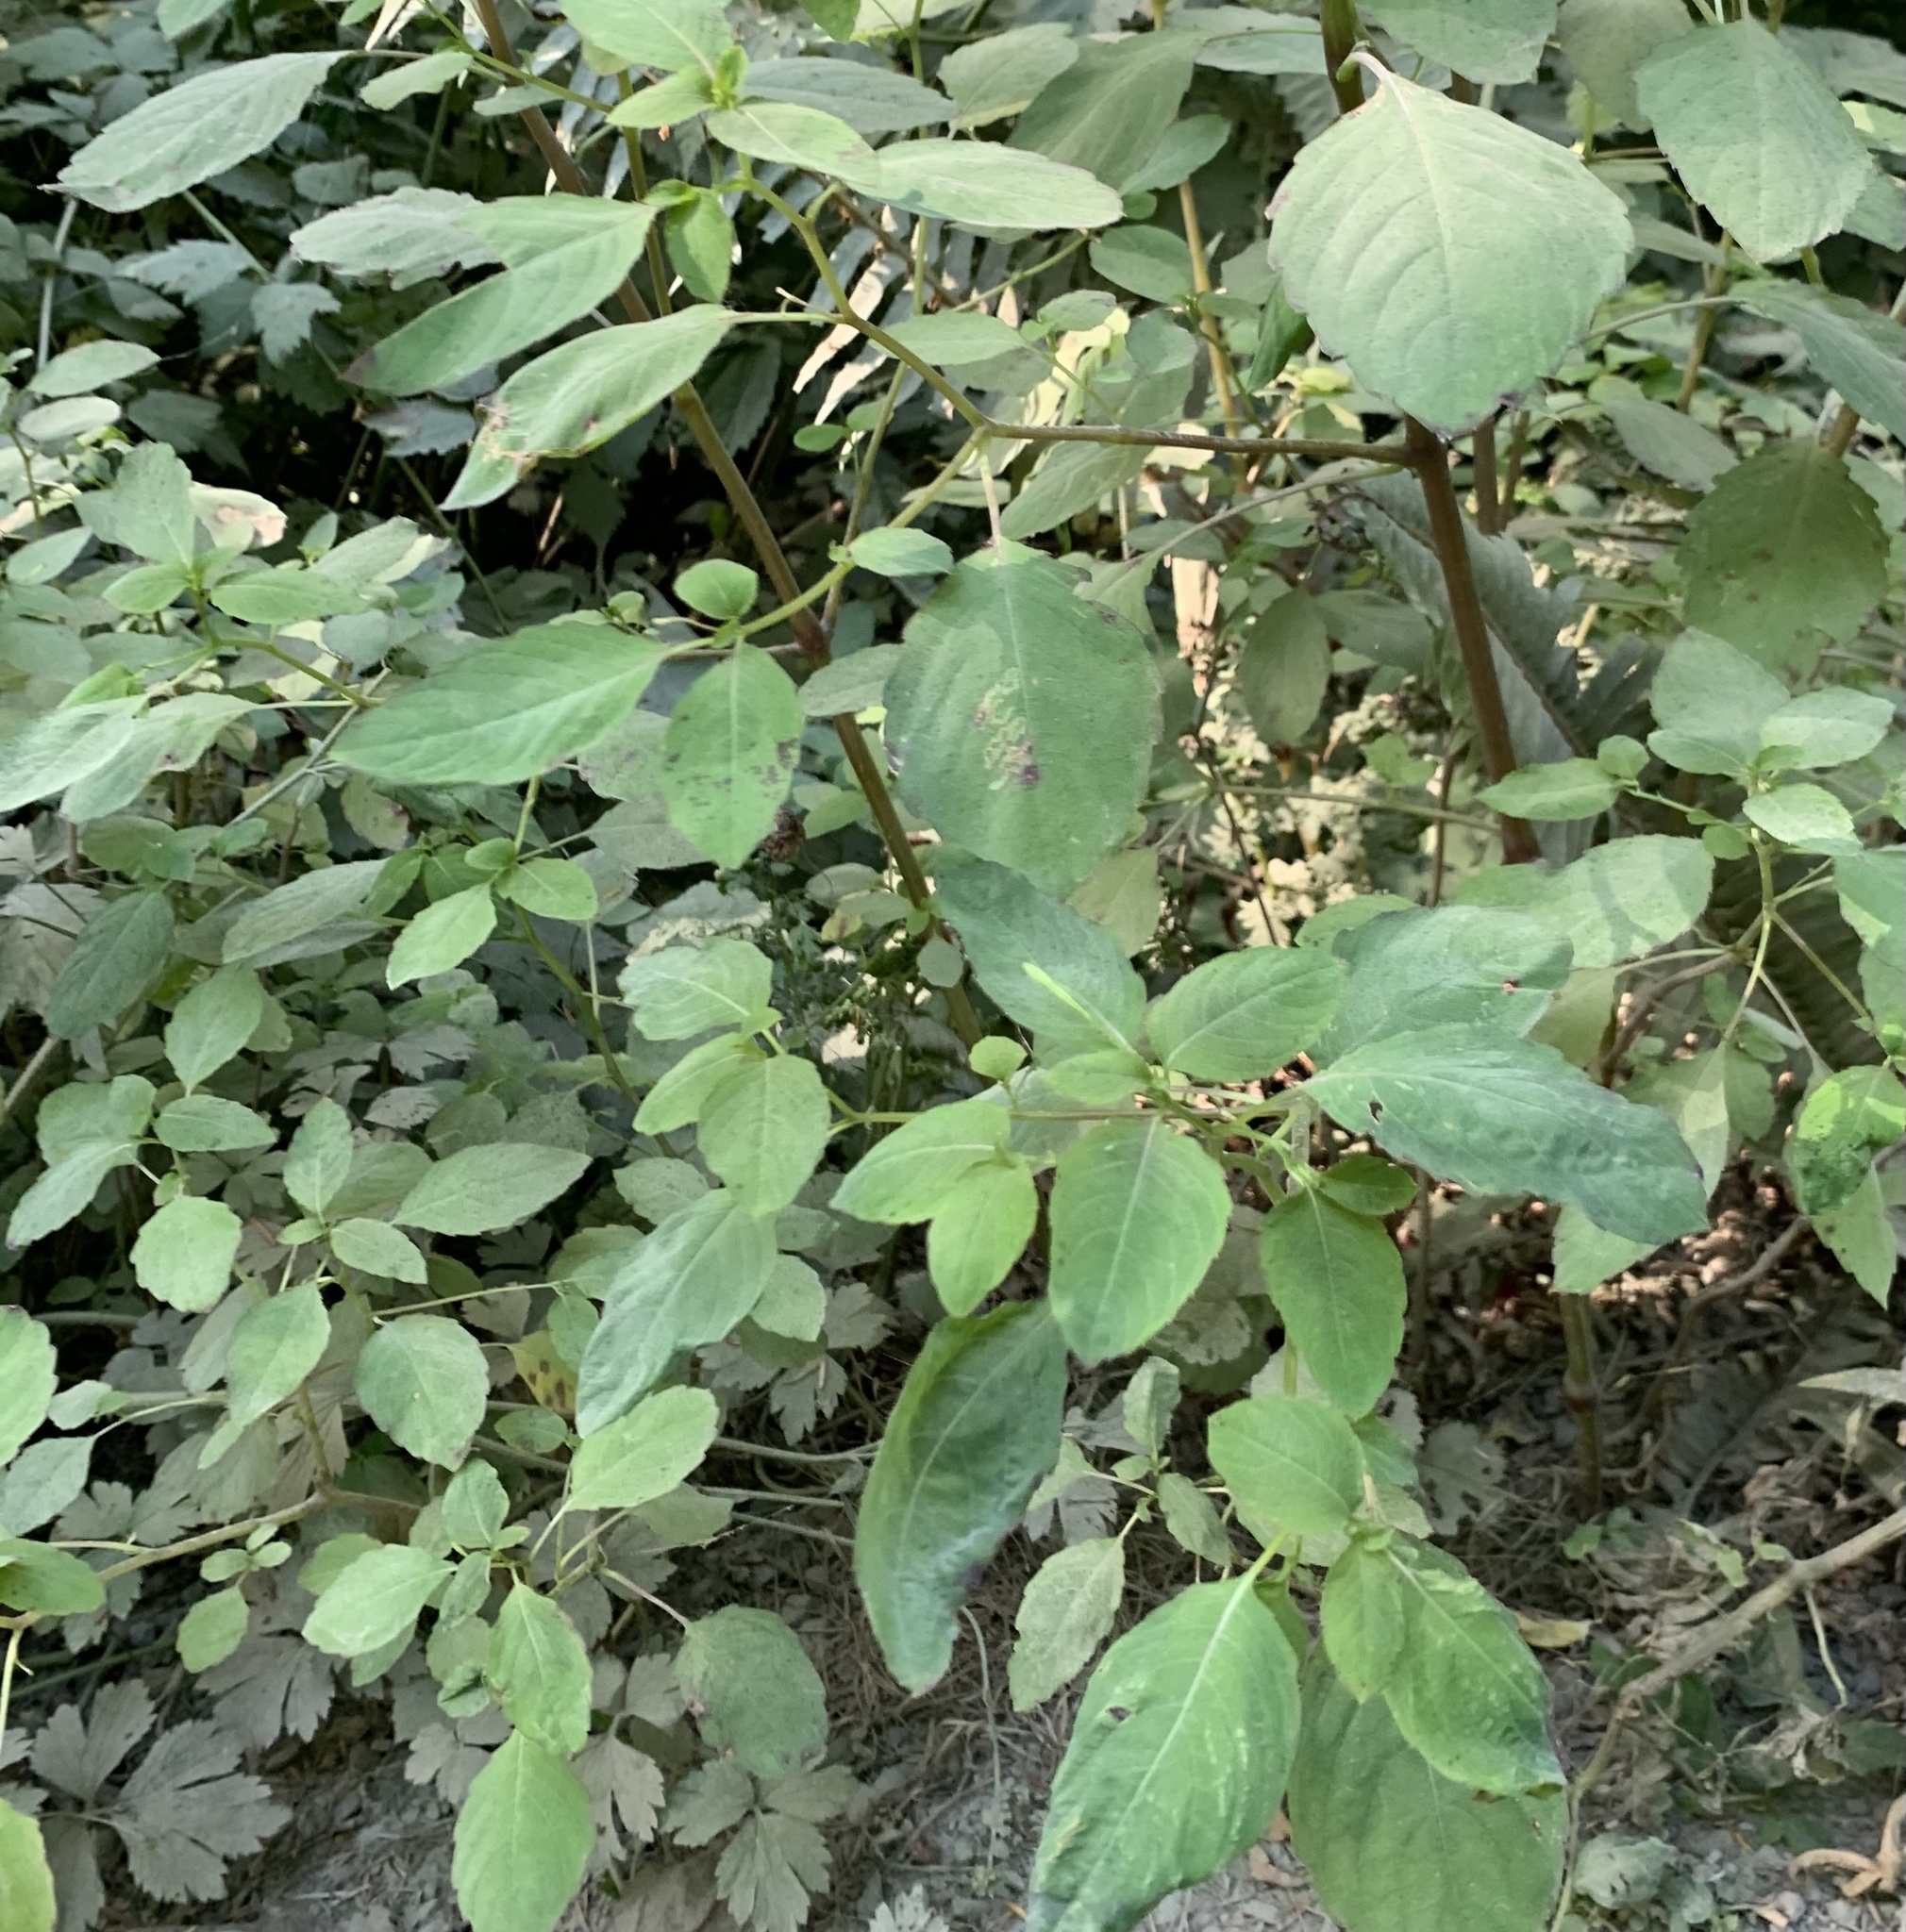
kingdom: Plantae
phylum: Tracheophyta
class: Magnoliopsida
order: Ericales
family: Balsaminaceae
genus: Impatiens
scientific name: Impatiens capensis
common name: Orange balsam
